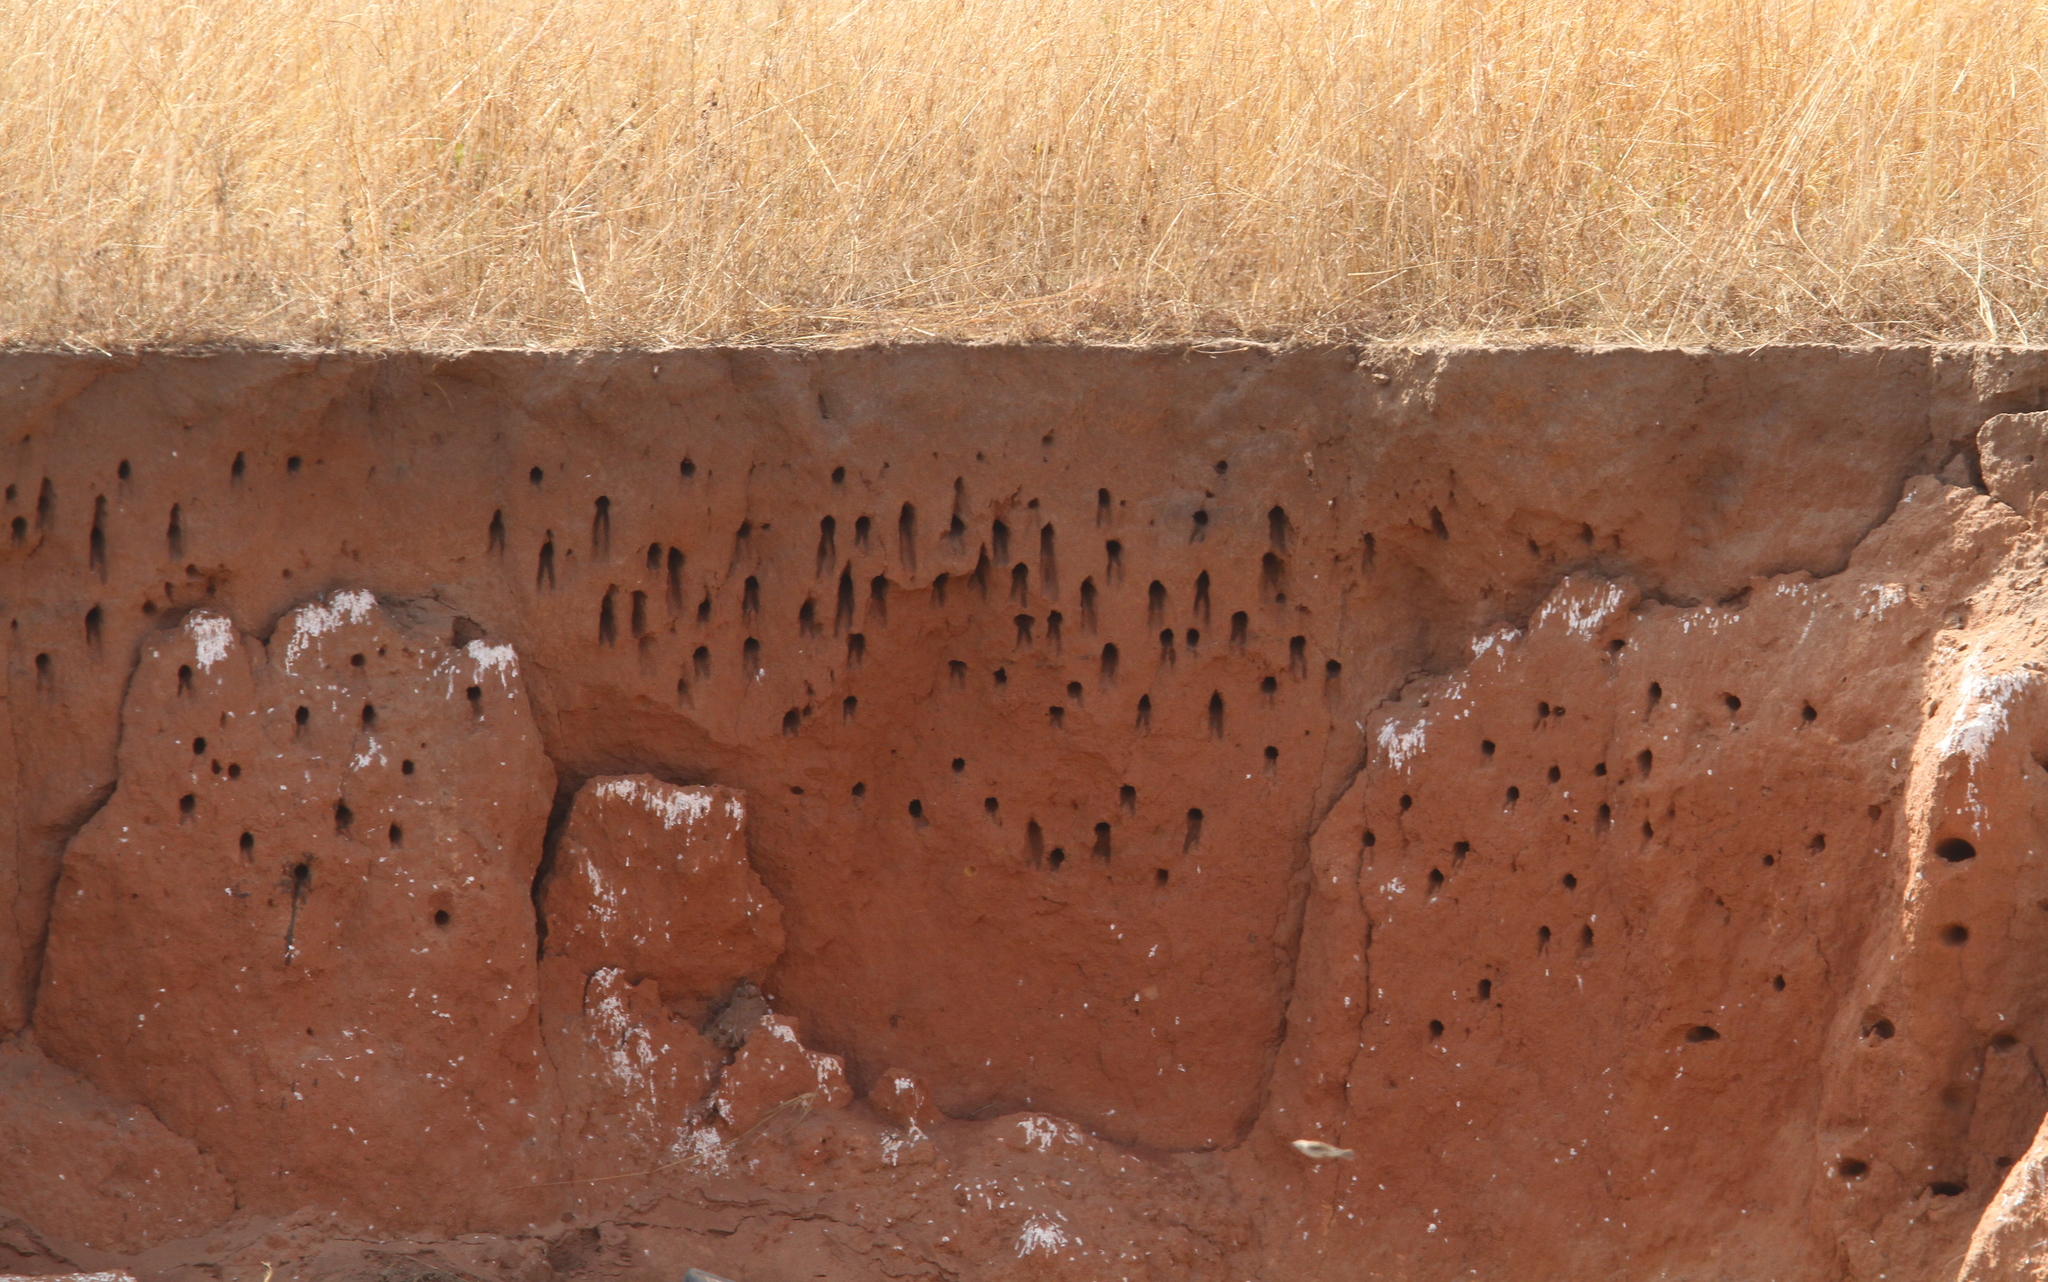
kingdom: Animalia
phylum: Chordata
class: Aves
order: Coraciiformes
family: Meropidae
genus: Merops
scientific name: Merops bulocki
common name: Red-throated bee-eater
